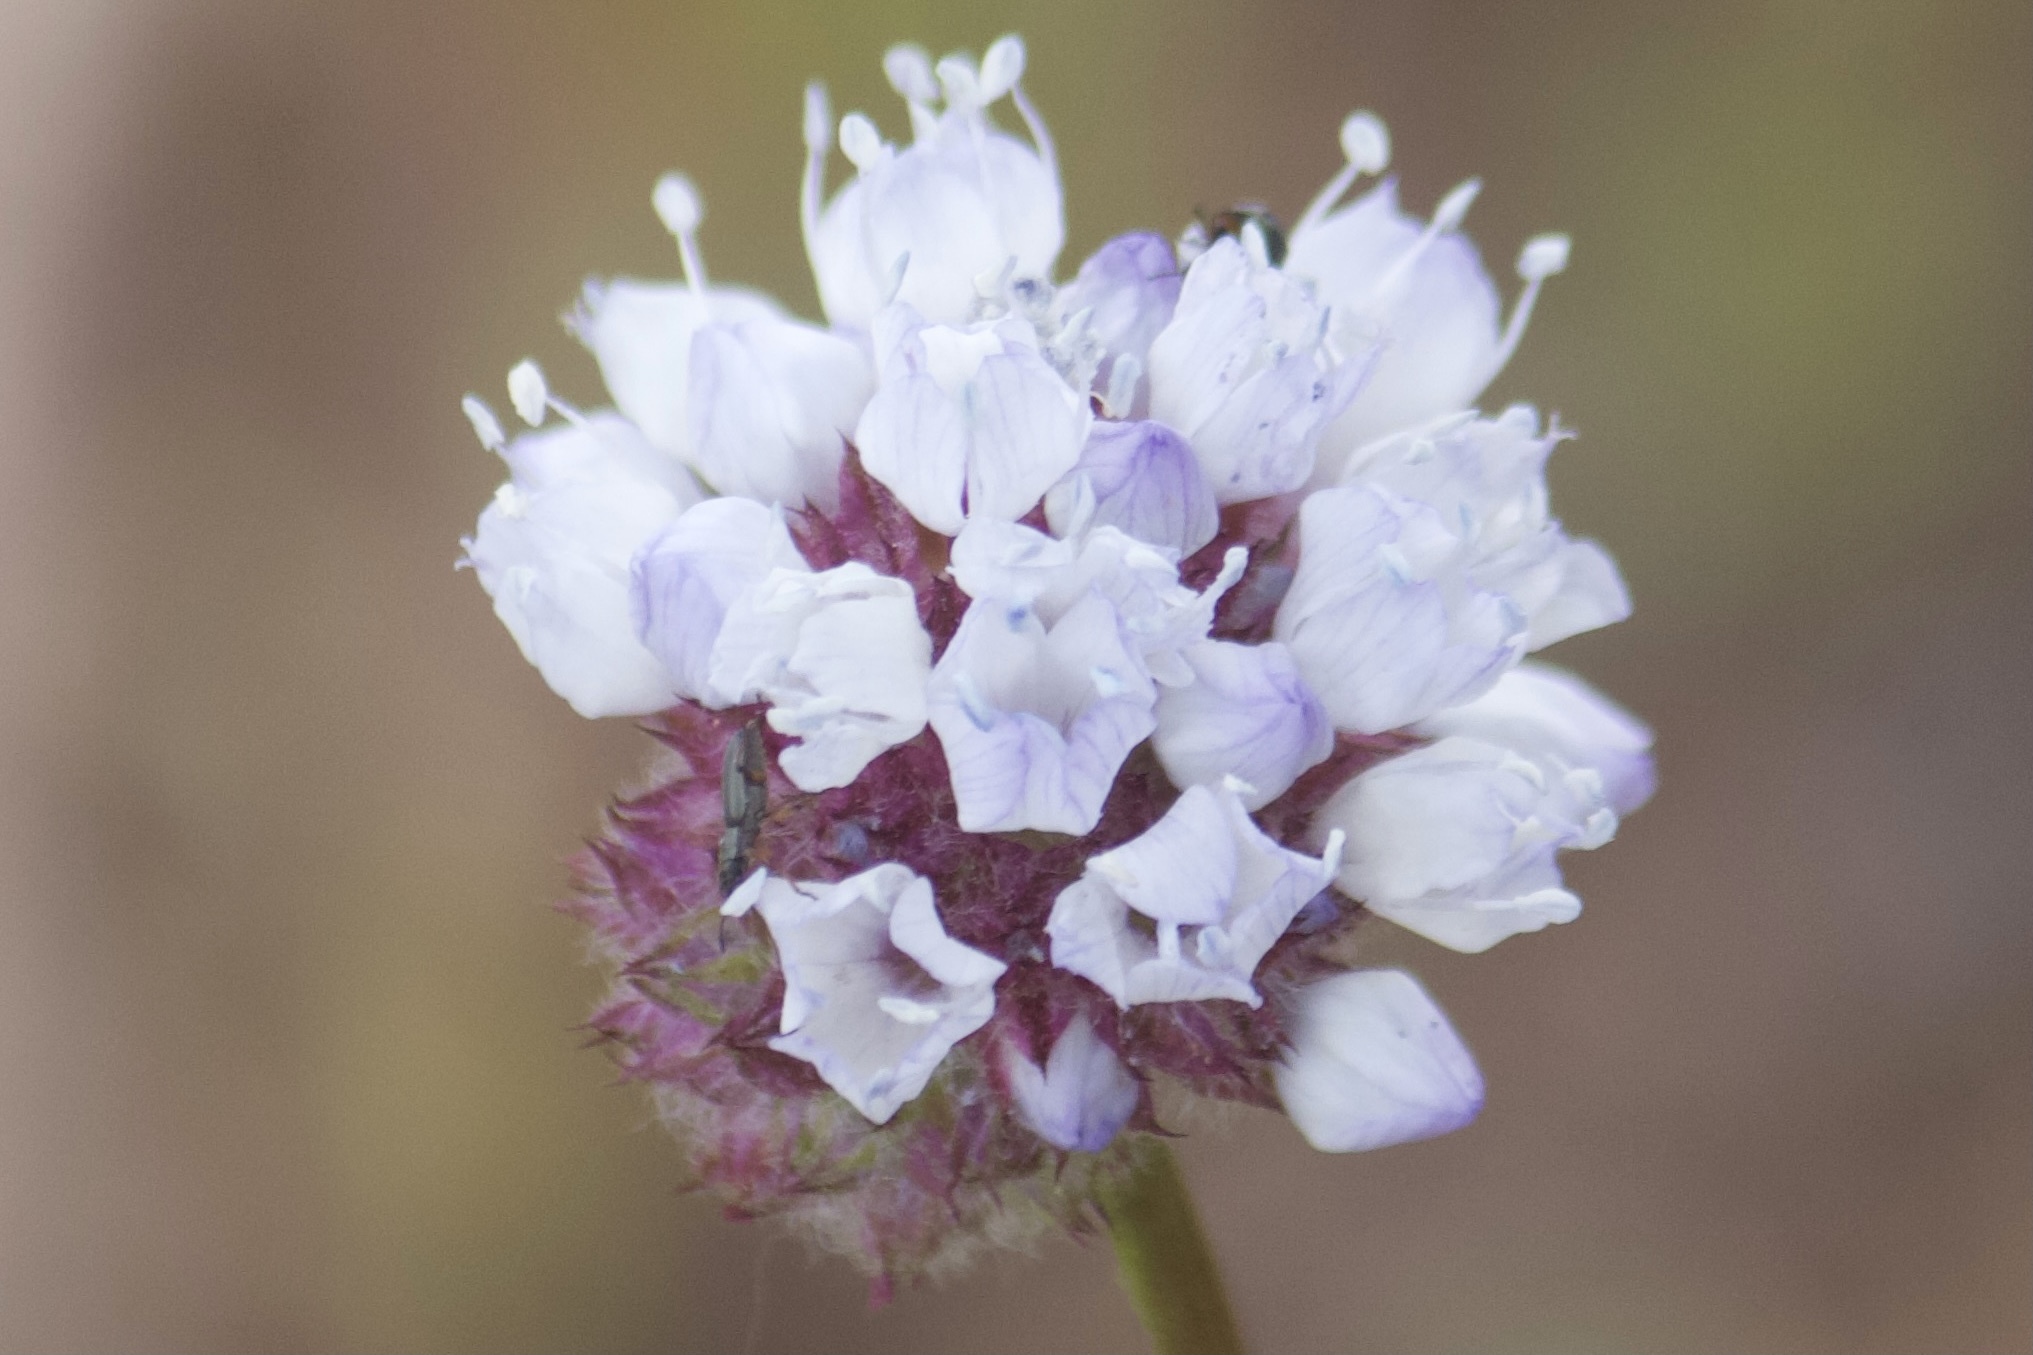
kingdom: Plantae
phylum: Tracheophyta
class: Magnoliopsida
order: Ericales
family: Polemoniaceae
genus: Gilia
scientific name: Gilia capitata
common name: Bluehead gilia
